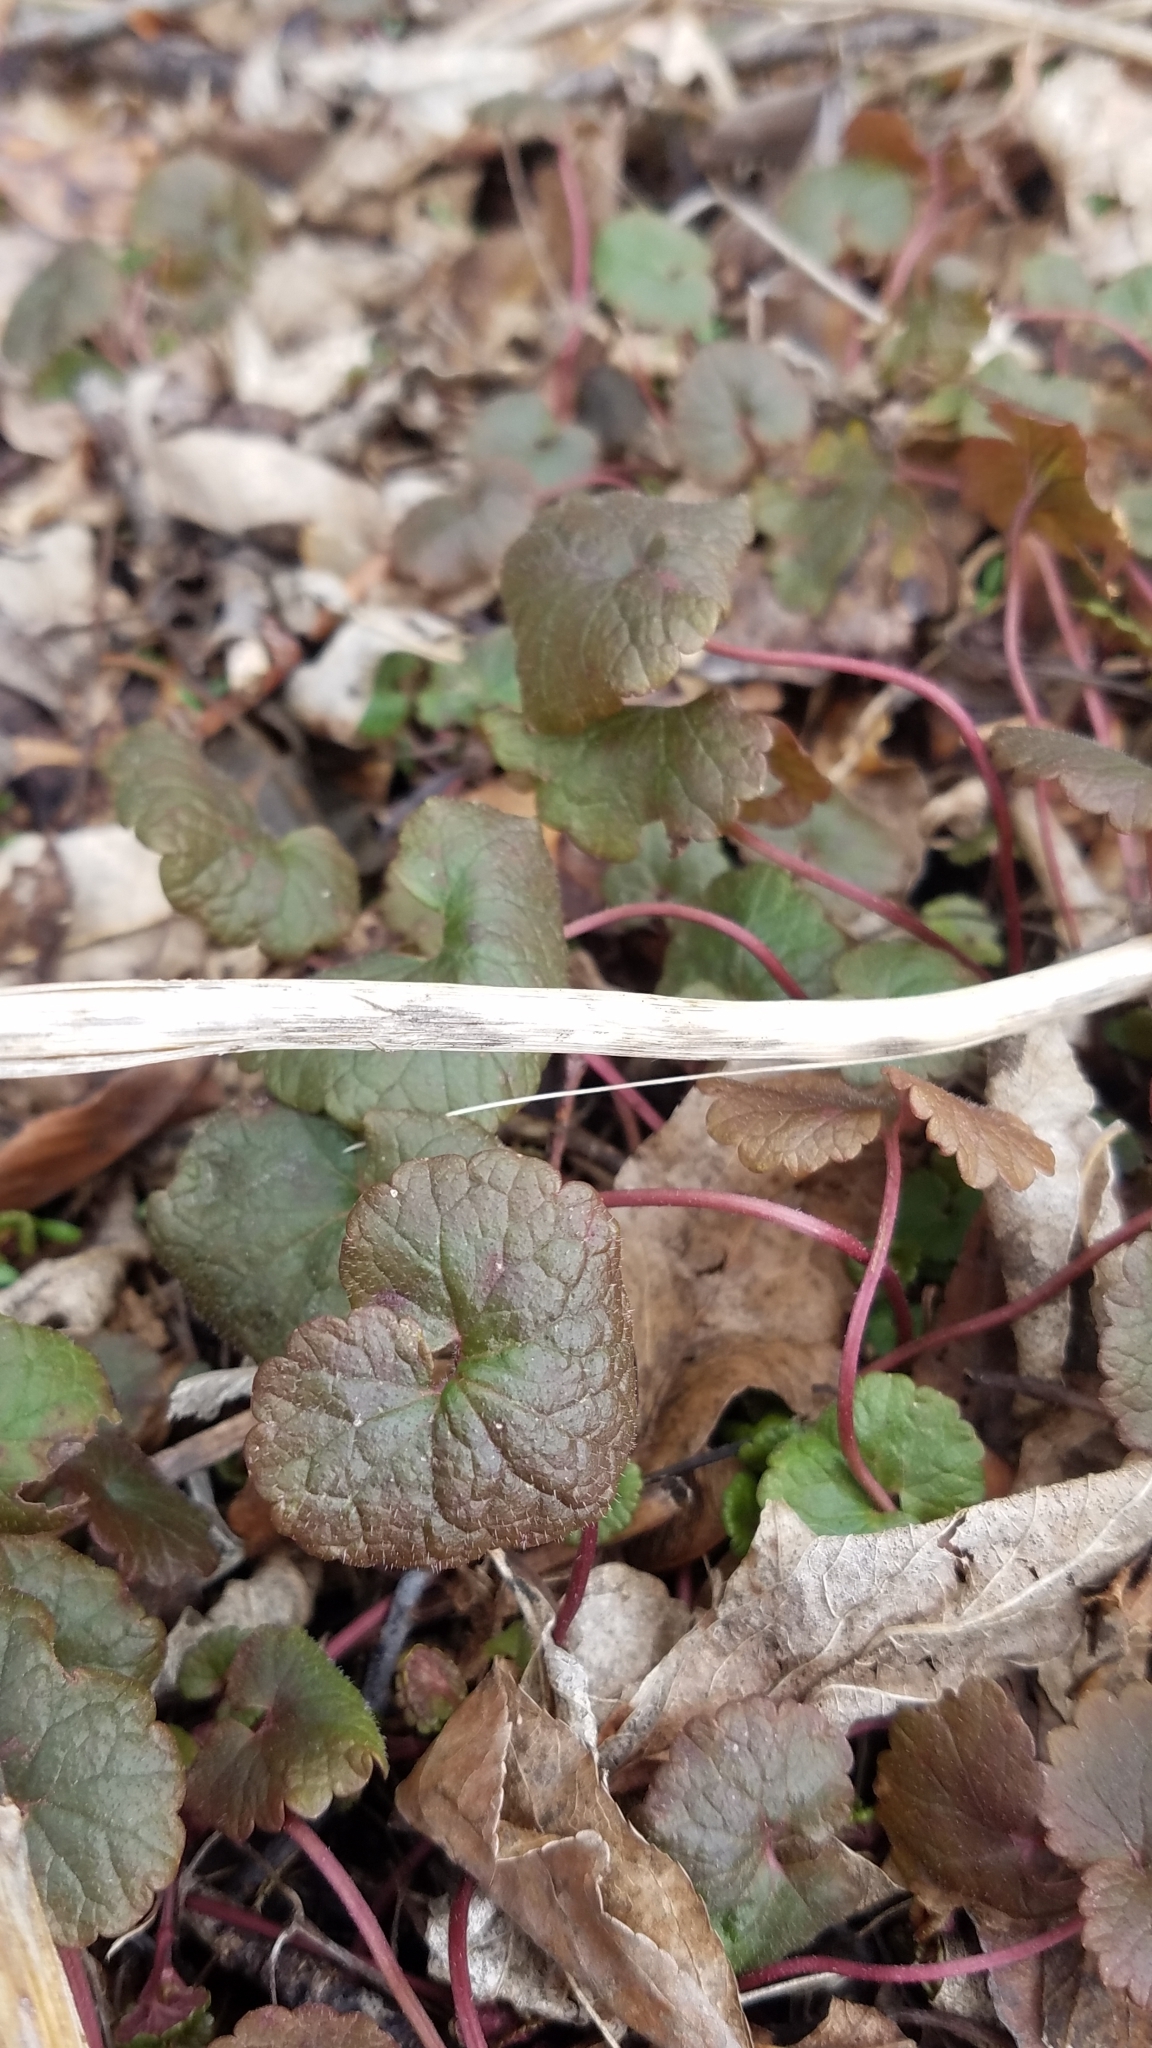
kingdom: Plantae
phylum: Tracheophyta
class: Magnoliopsida
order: Lamiales
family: Lamiaceae
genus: Glechoma
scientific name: Glechoma hederacea
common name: Ground ivy
